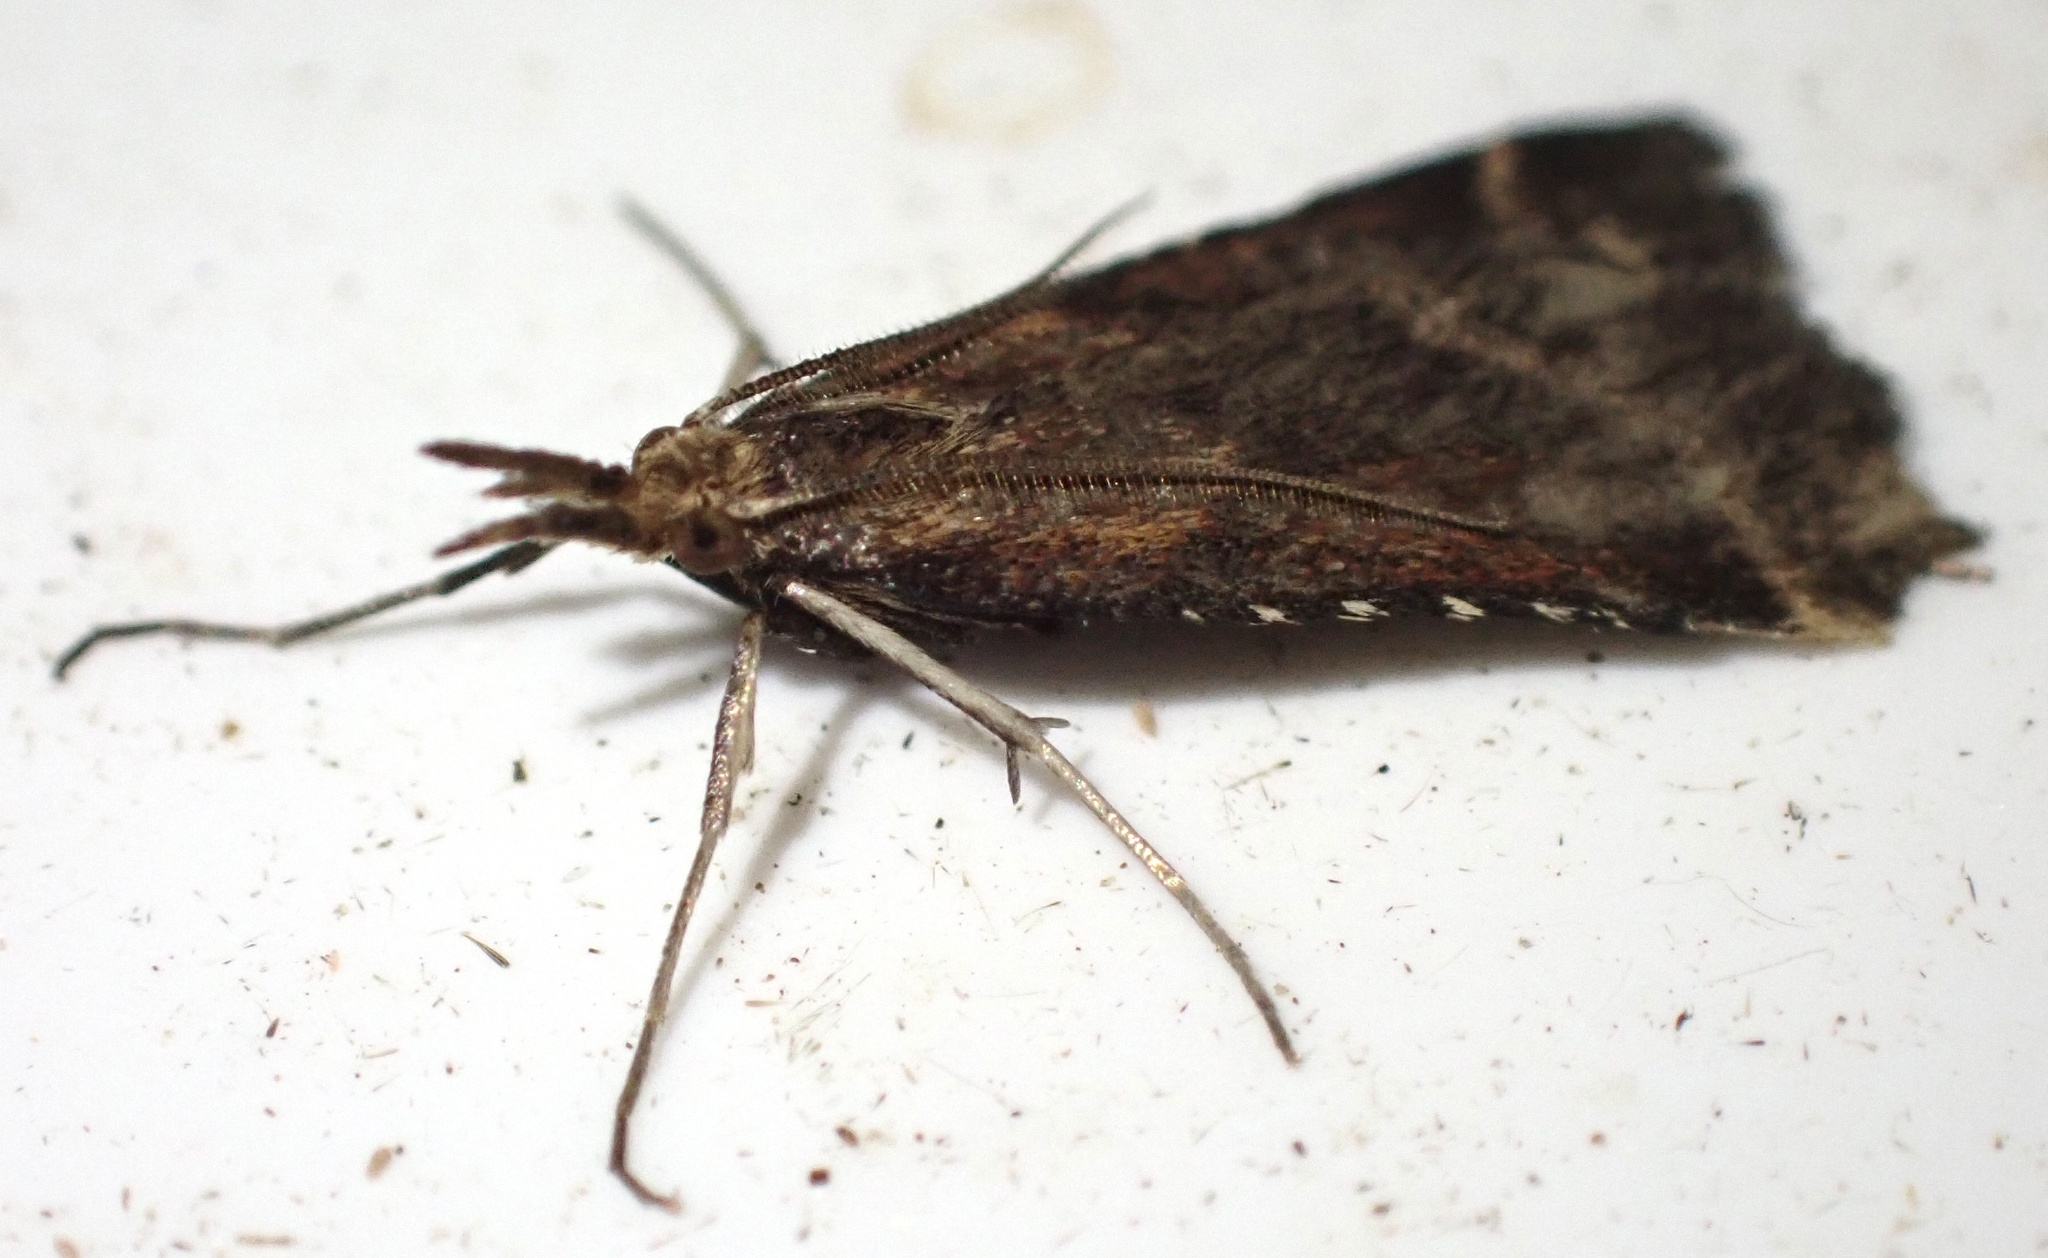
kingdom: Animalia
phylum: Arthropoda
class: Insecta
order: Lepidoptera
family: Pyralidae
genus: Synaphe
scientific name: Synaphe punctalis
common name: Long-legged tabby
